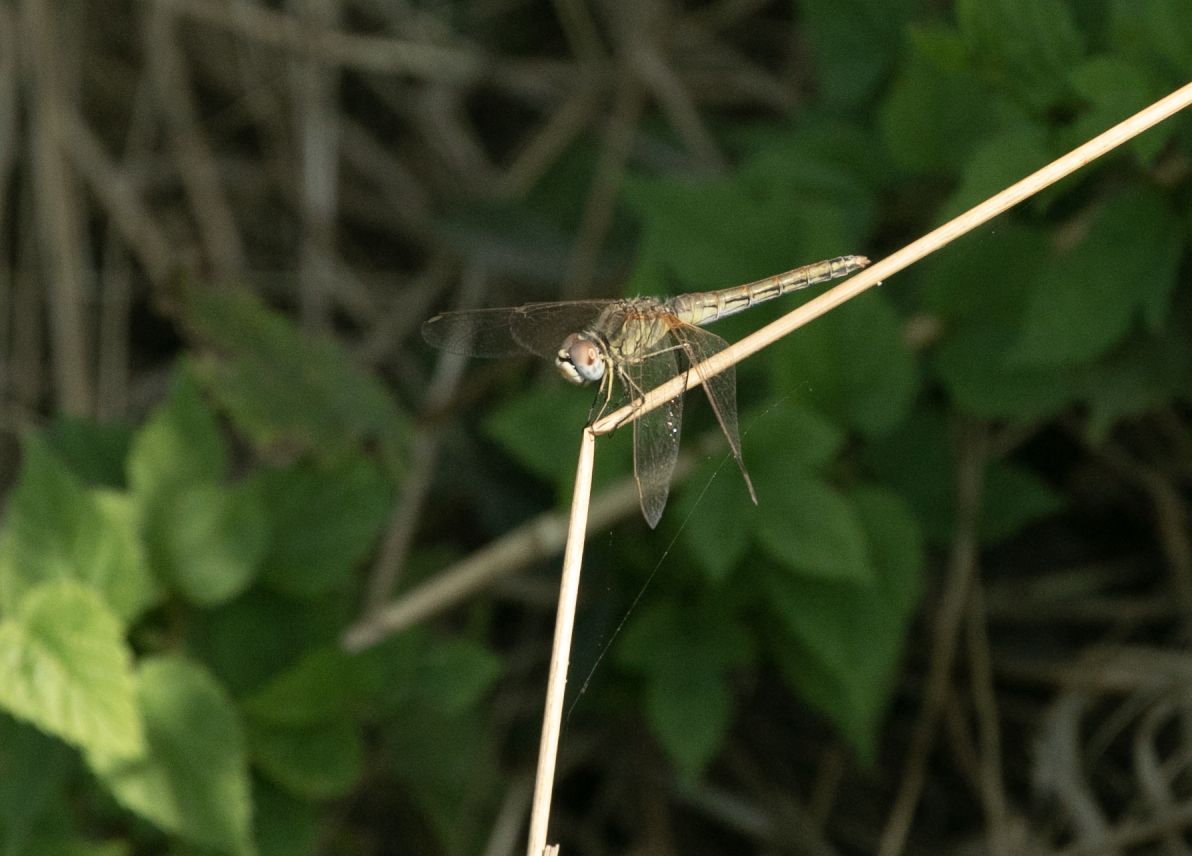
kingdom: Animalia
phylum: Arthropoda
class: Insecta
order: Odonata
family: Libellulidae
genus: Sympetrum
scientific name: Sympetrum fonscolombii
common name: Red-veined darter
